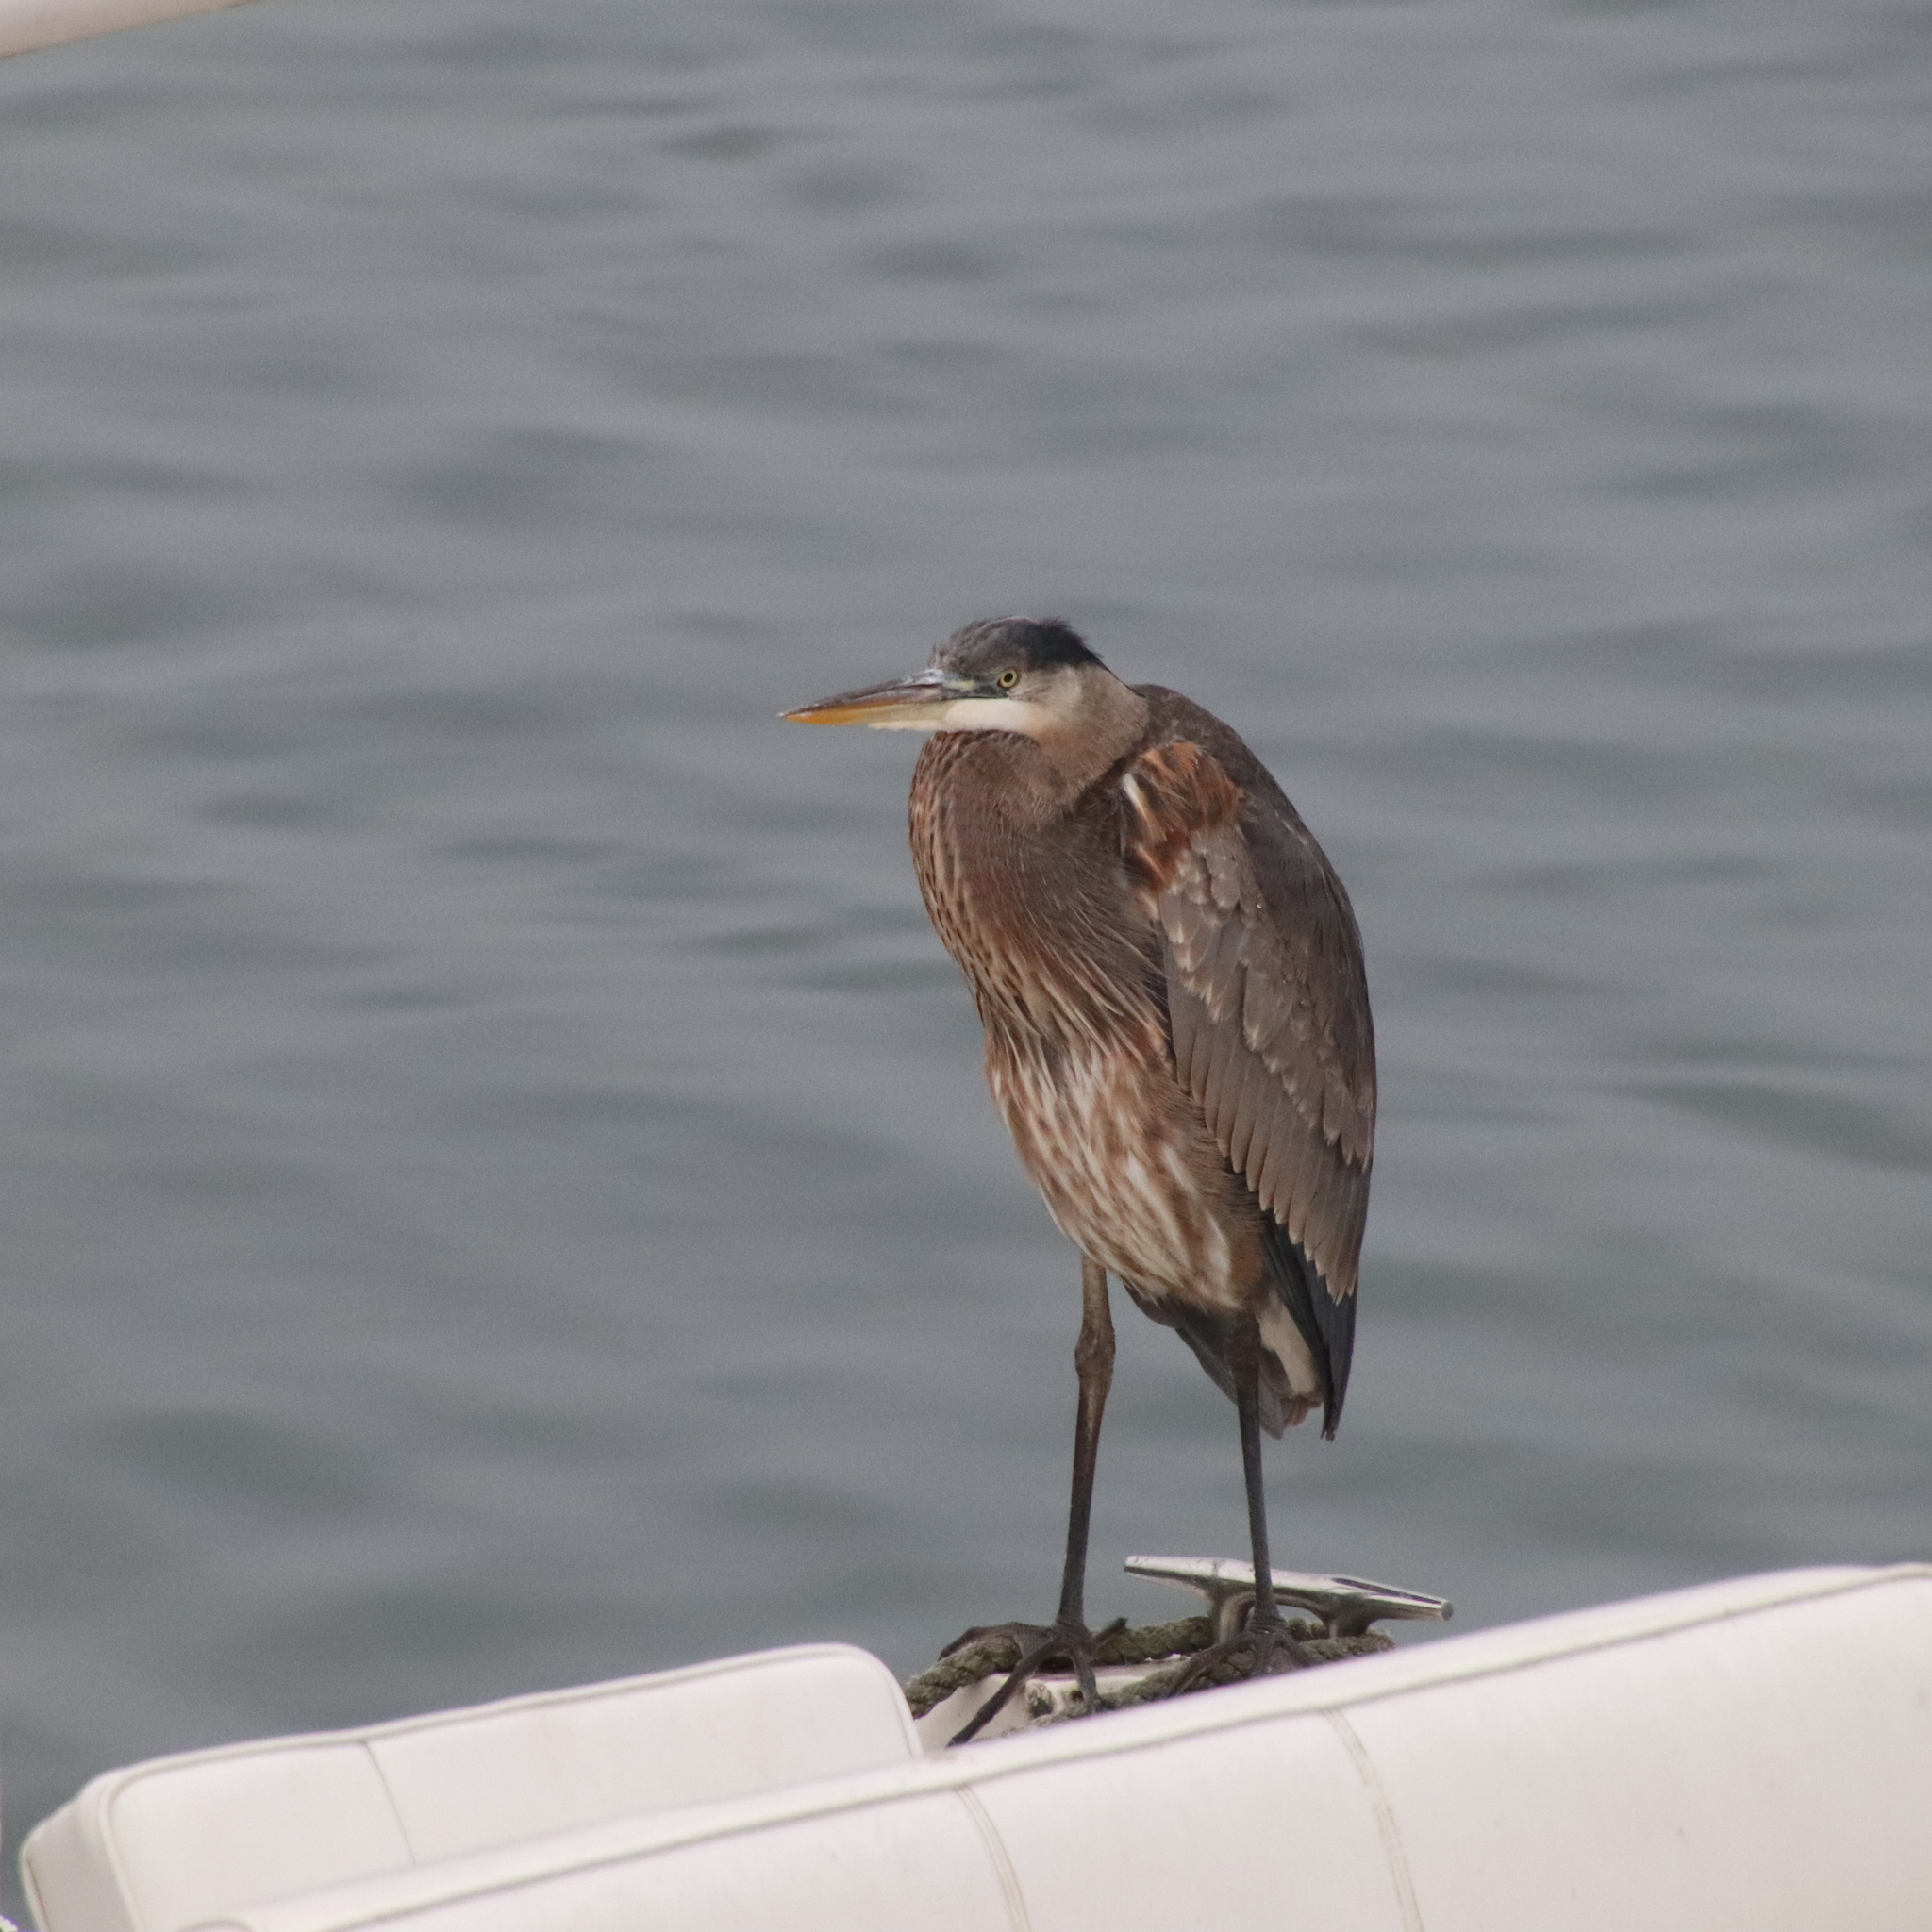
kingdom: Animalia
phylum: Chordata
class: Aves
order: Pelecaniformes
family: Ardeidae
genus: Ardea
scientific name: Ardea herodias
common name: Great blue heron
